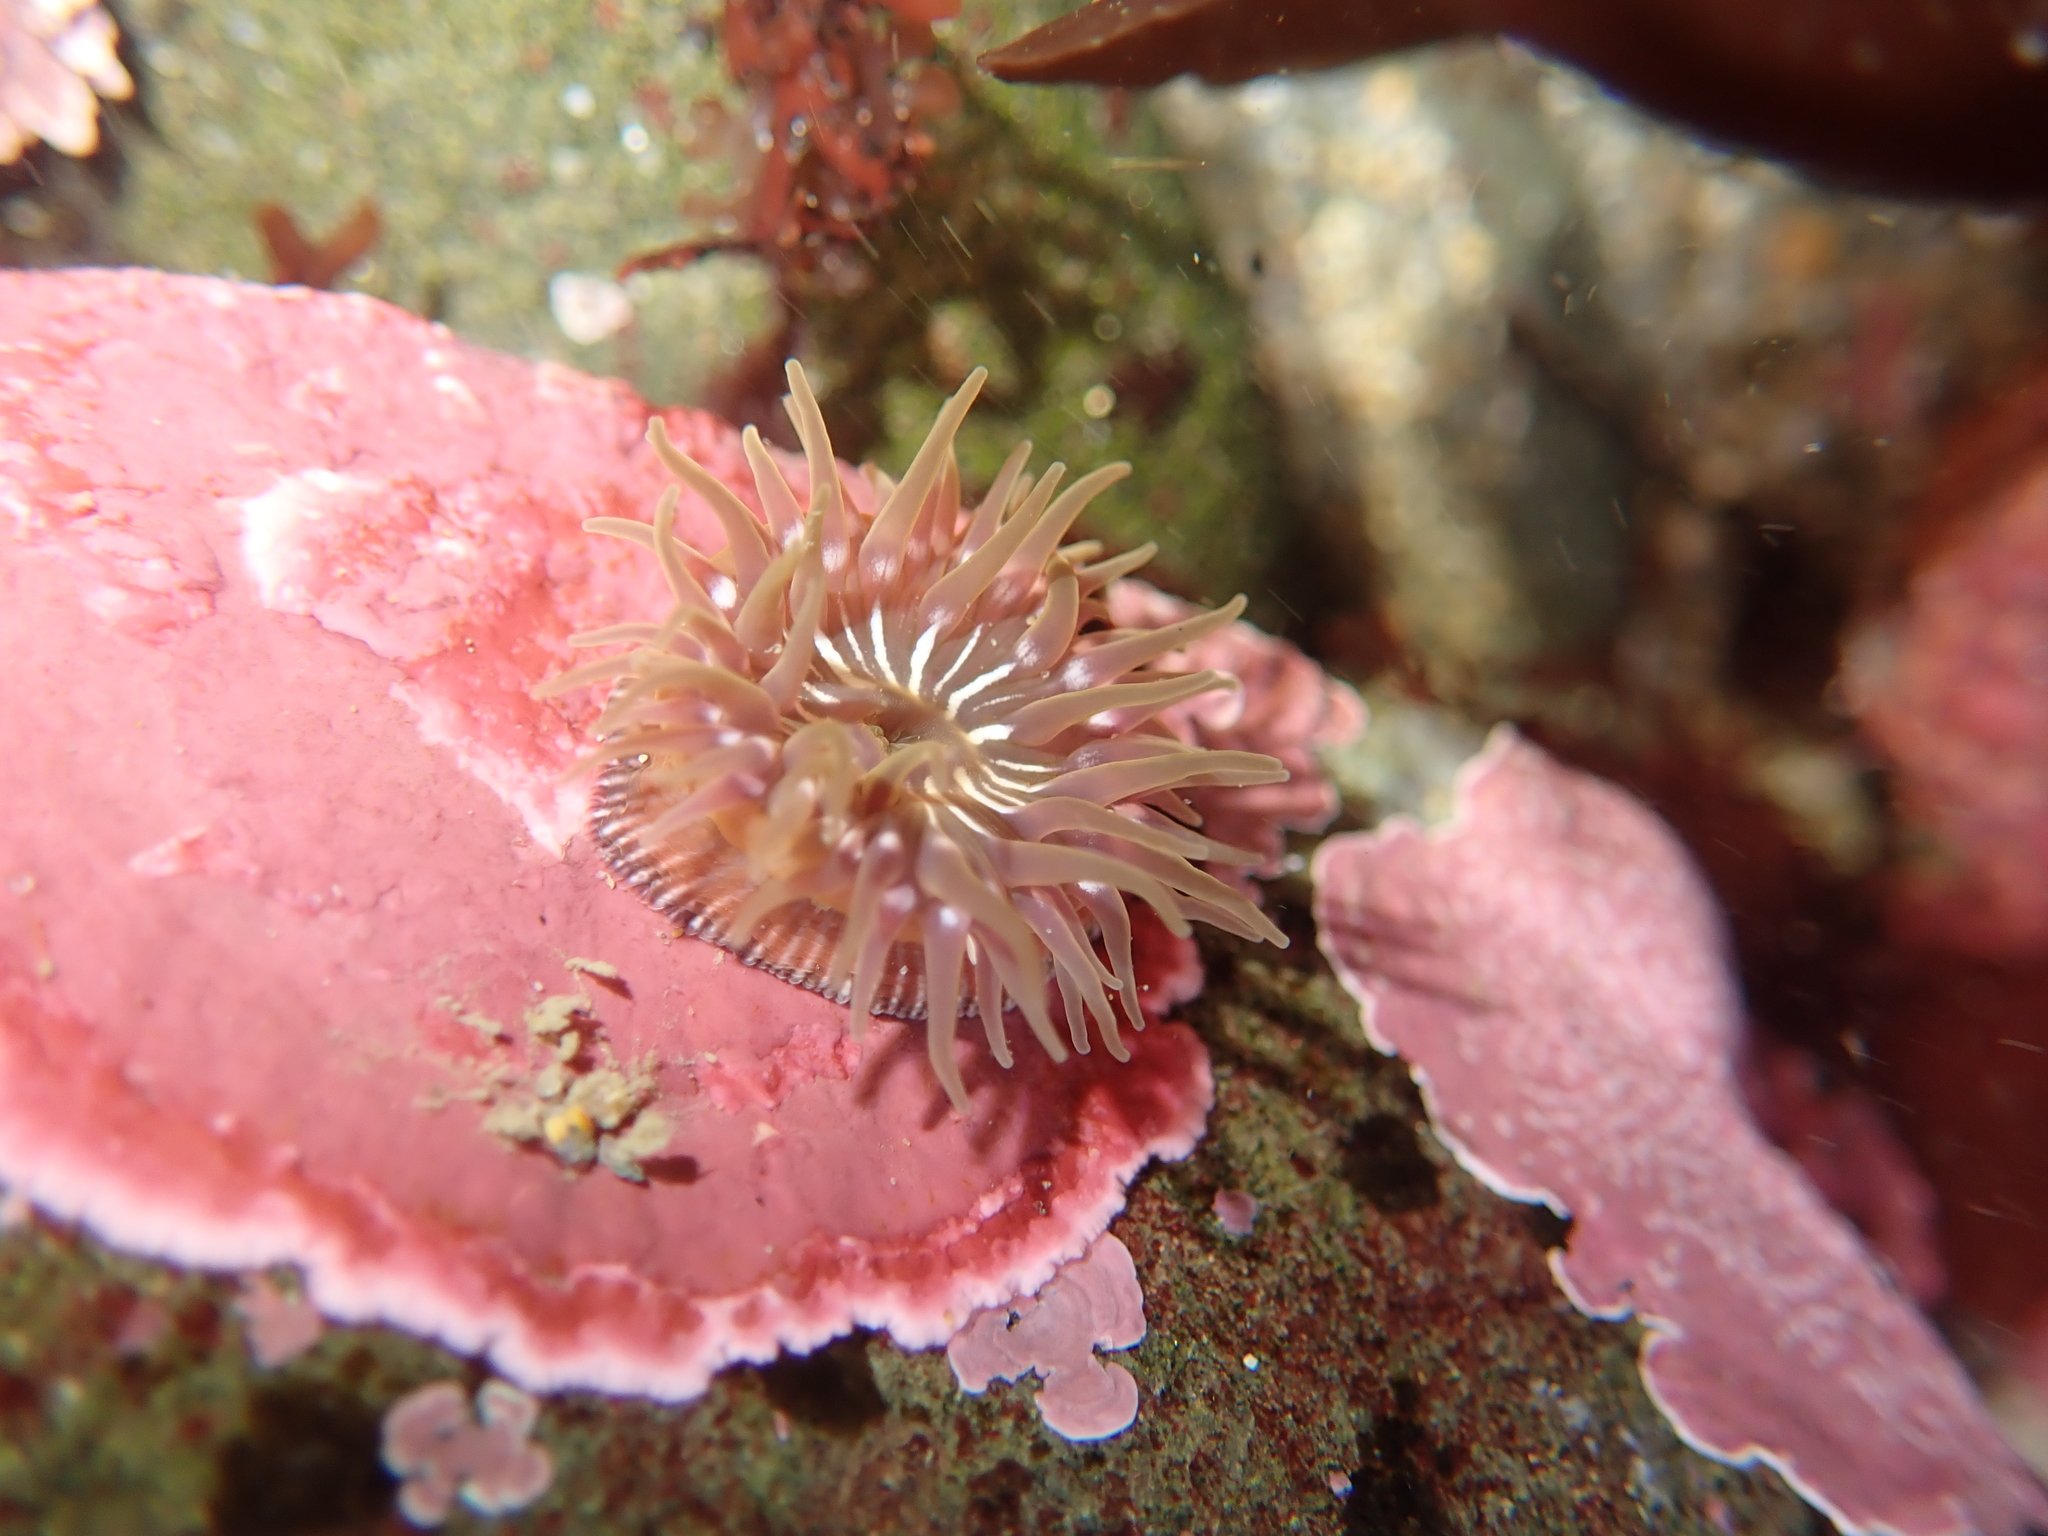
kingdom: Animalia
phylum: Cnidaria
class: Anthozoa
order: Actiniaria
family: Actiniidae
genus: Epiactis
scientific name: Epiactis prolifera
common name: Brooding anemone
